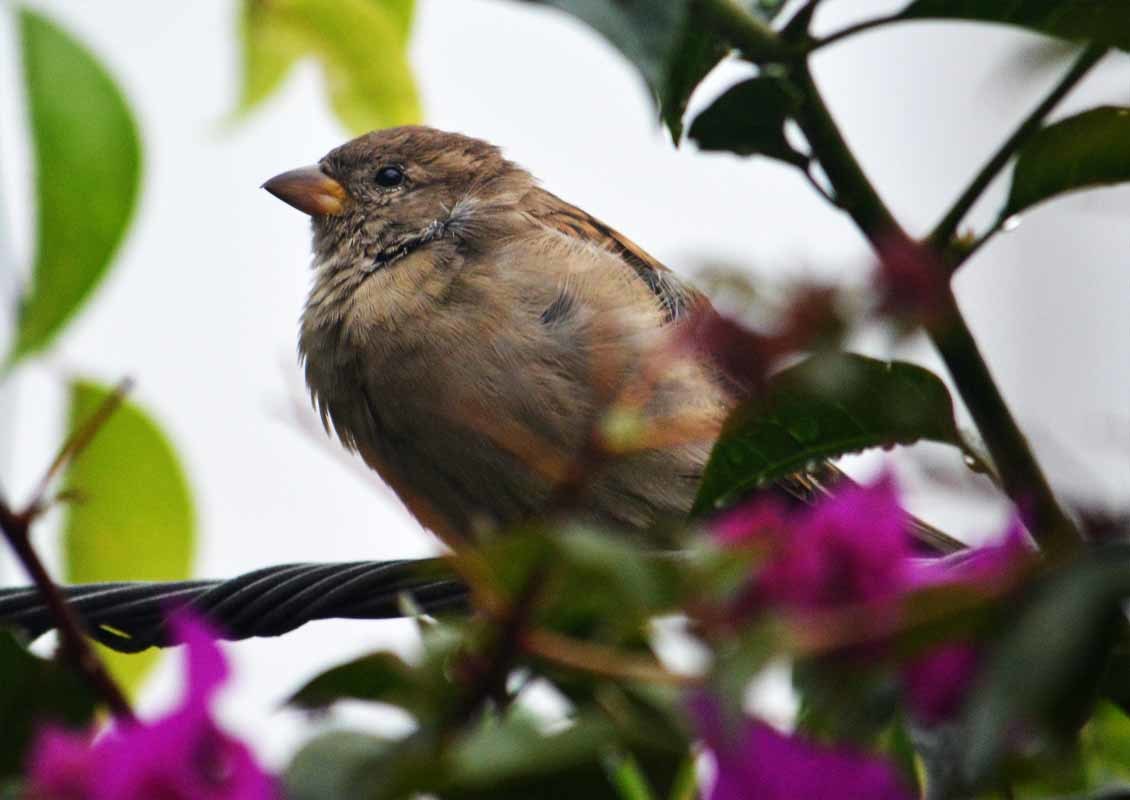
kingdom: Animalia
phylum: Chordata
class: Aves
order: Passeriformes
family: Passeridae
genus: Passer
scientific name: Passer domesticus
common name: House sparrow
